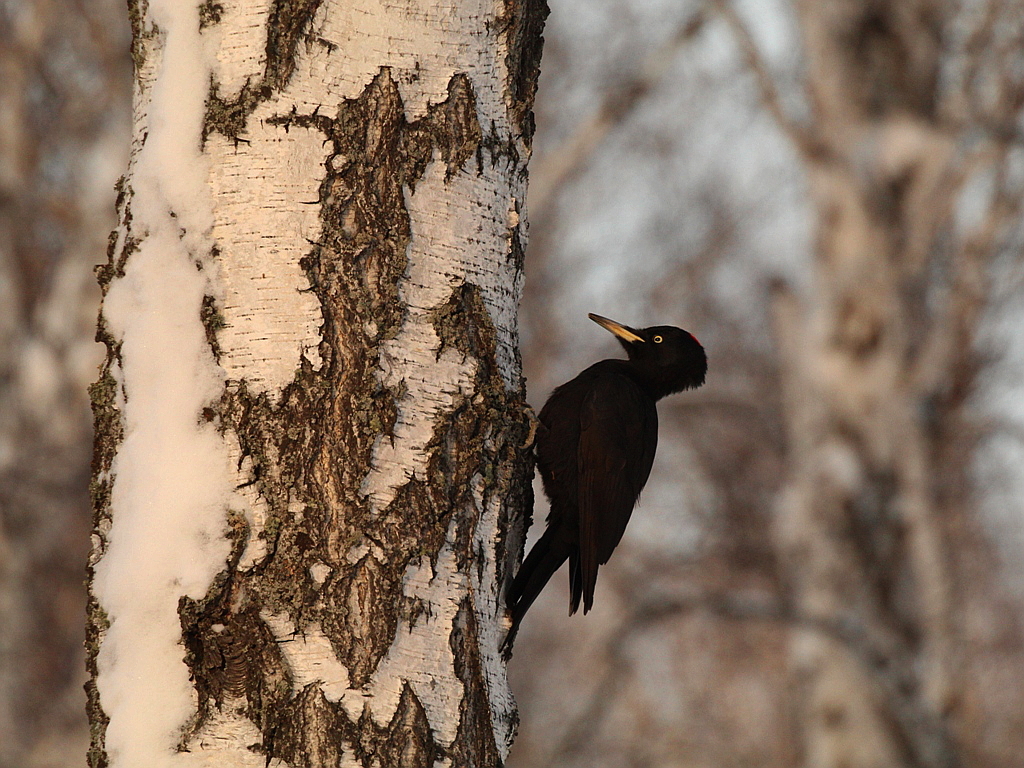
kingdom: Animalia
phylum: Chordata
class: Aves
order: Piciformes
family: Picidae
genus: Dryocopus
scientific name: Dryocopus martius
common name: Black woodpecker
